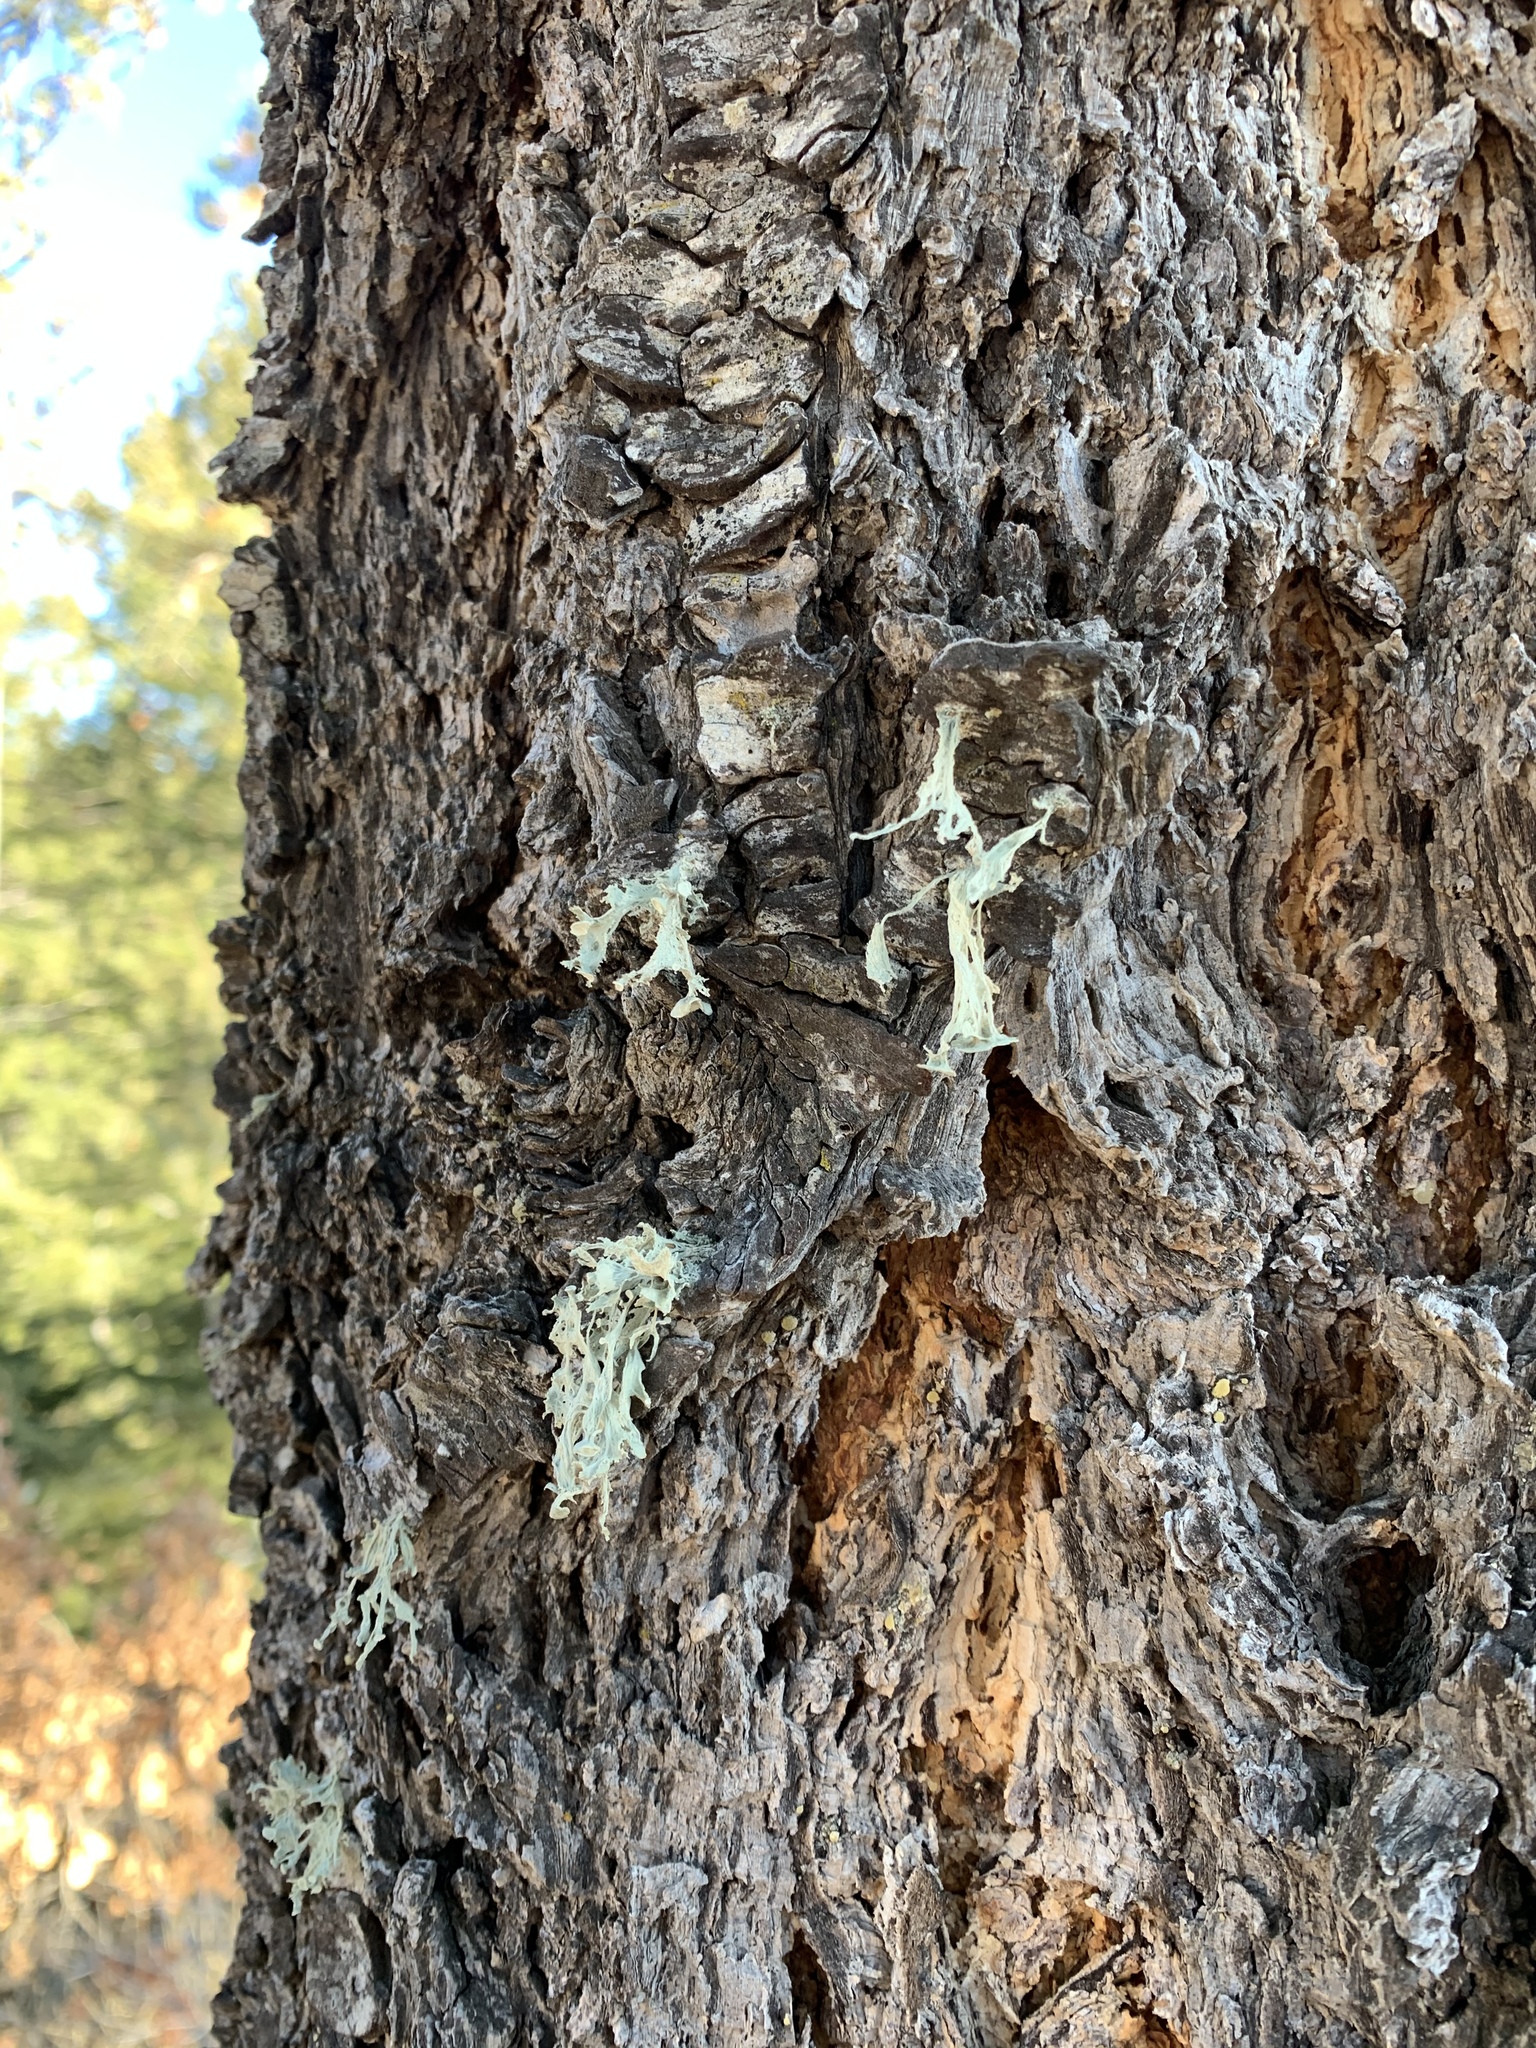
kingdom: Fungi
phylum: Ascomycota
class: Lecanoromycetes
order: Lecanorales
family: Ramalinaceae
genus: Ramalina
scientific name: Ramalina sinensis
